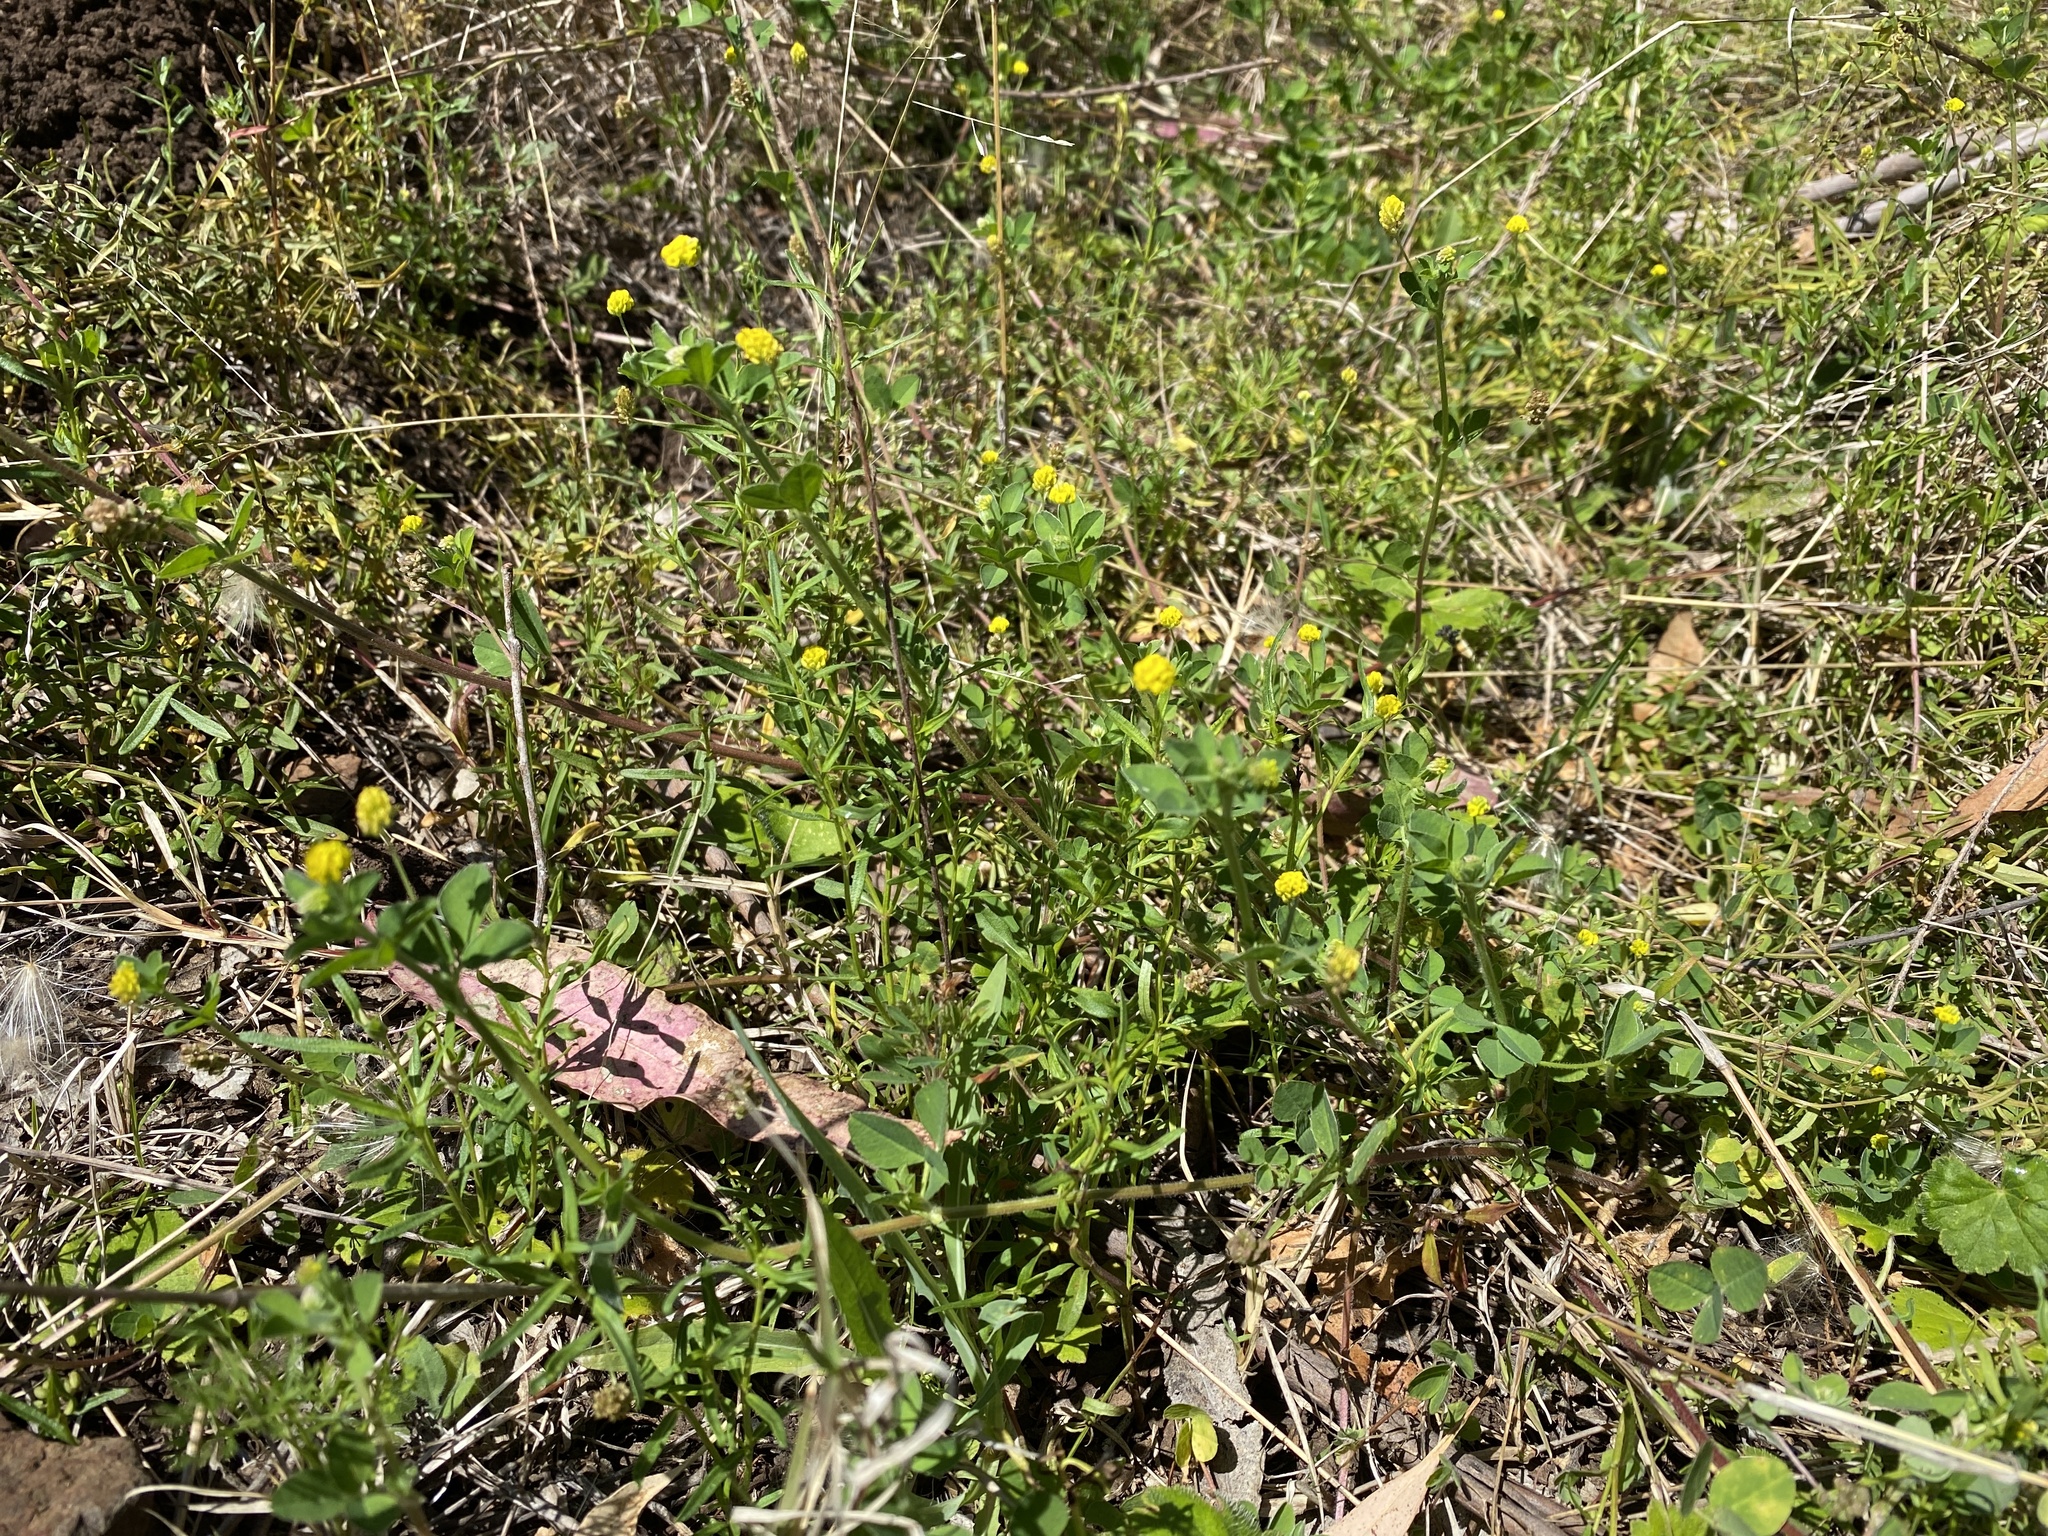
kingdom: Plantae
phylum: Tracheophyta
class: Magnoliopsida
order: Fabales
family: Fabaceae
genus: Medicago
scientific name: Medicago lupulina
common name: Black medick
